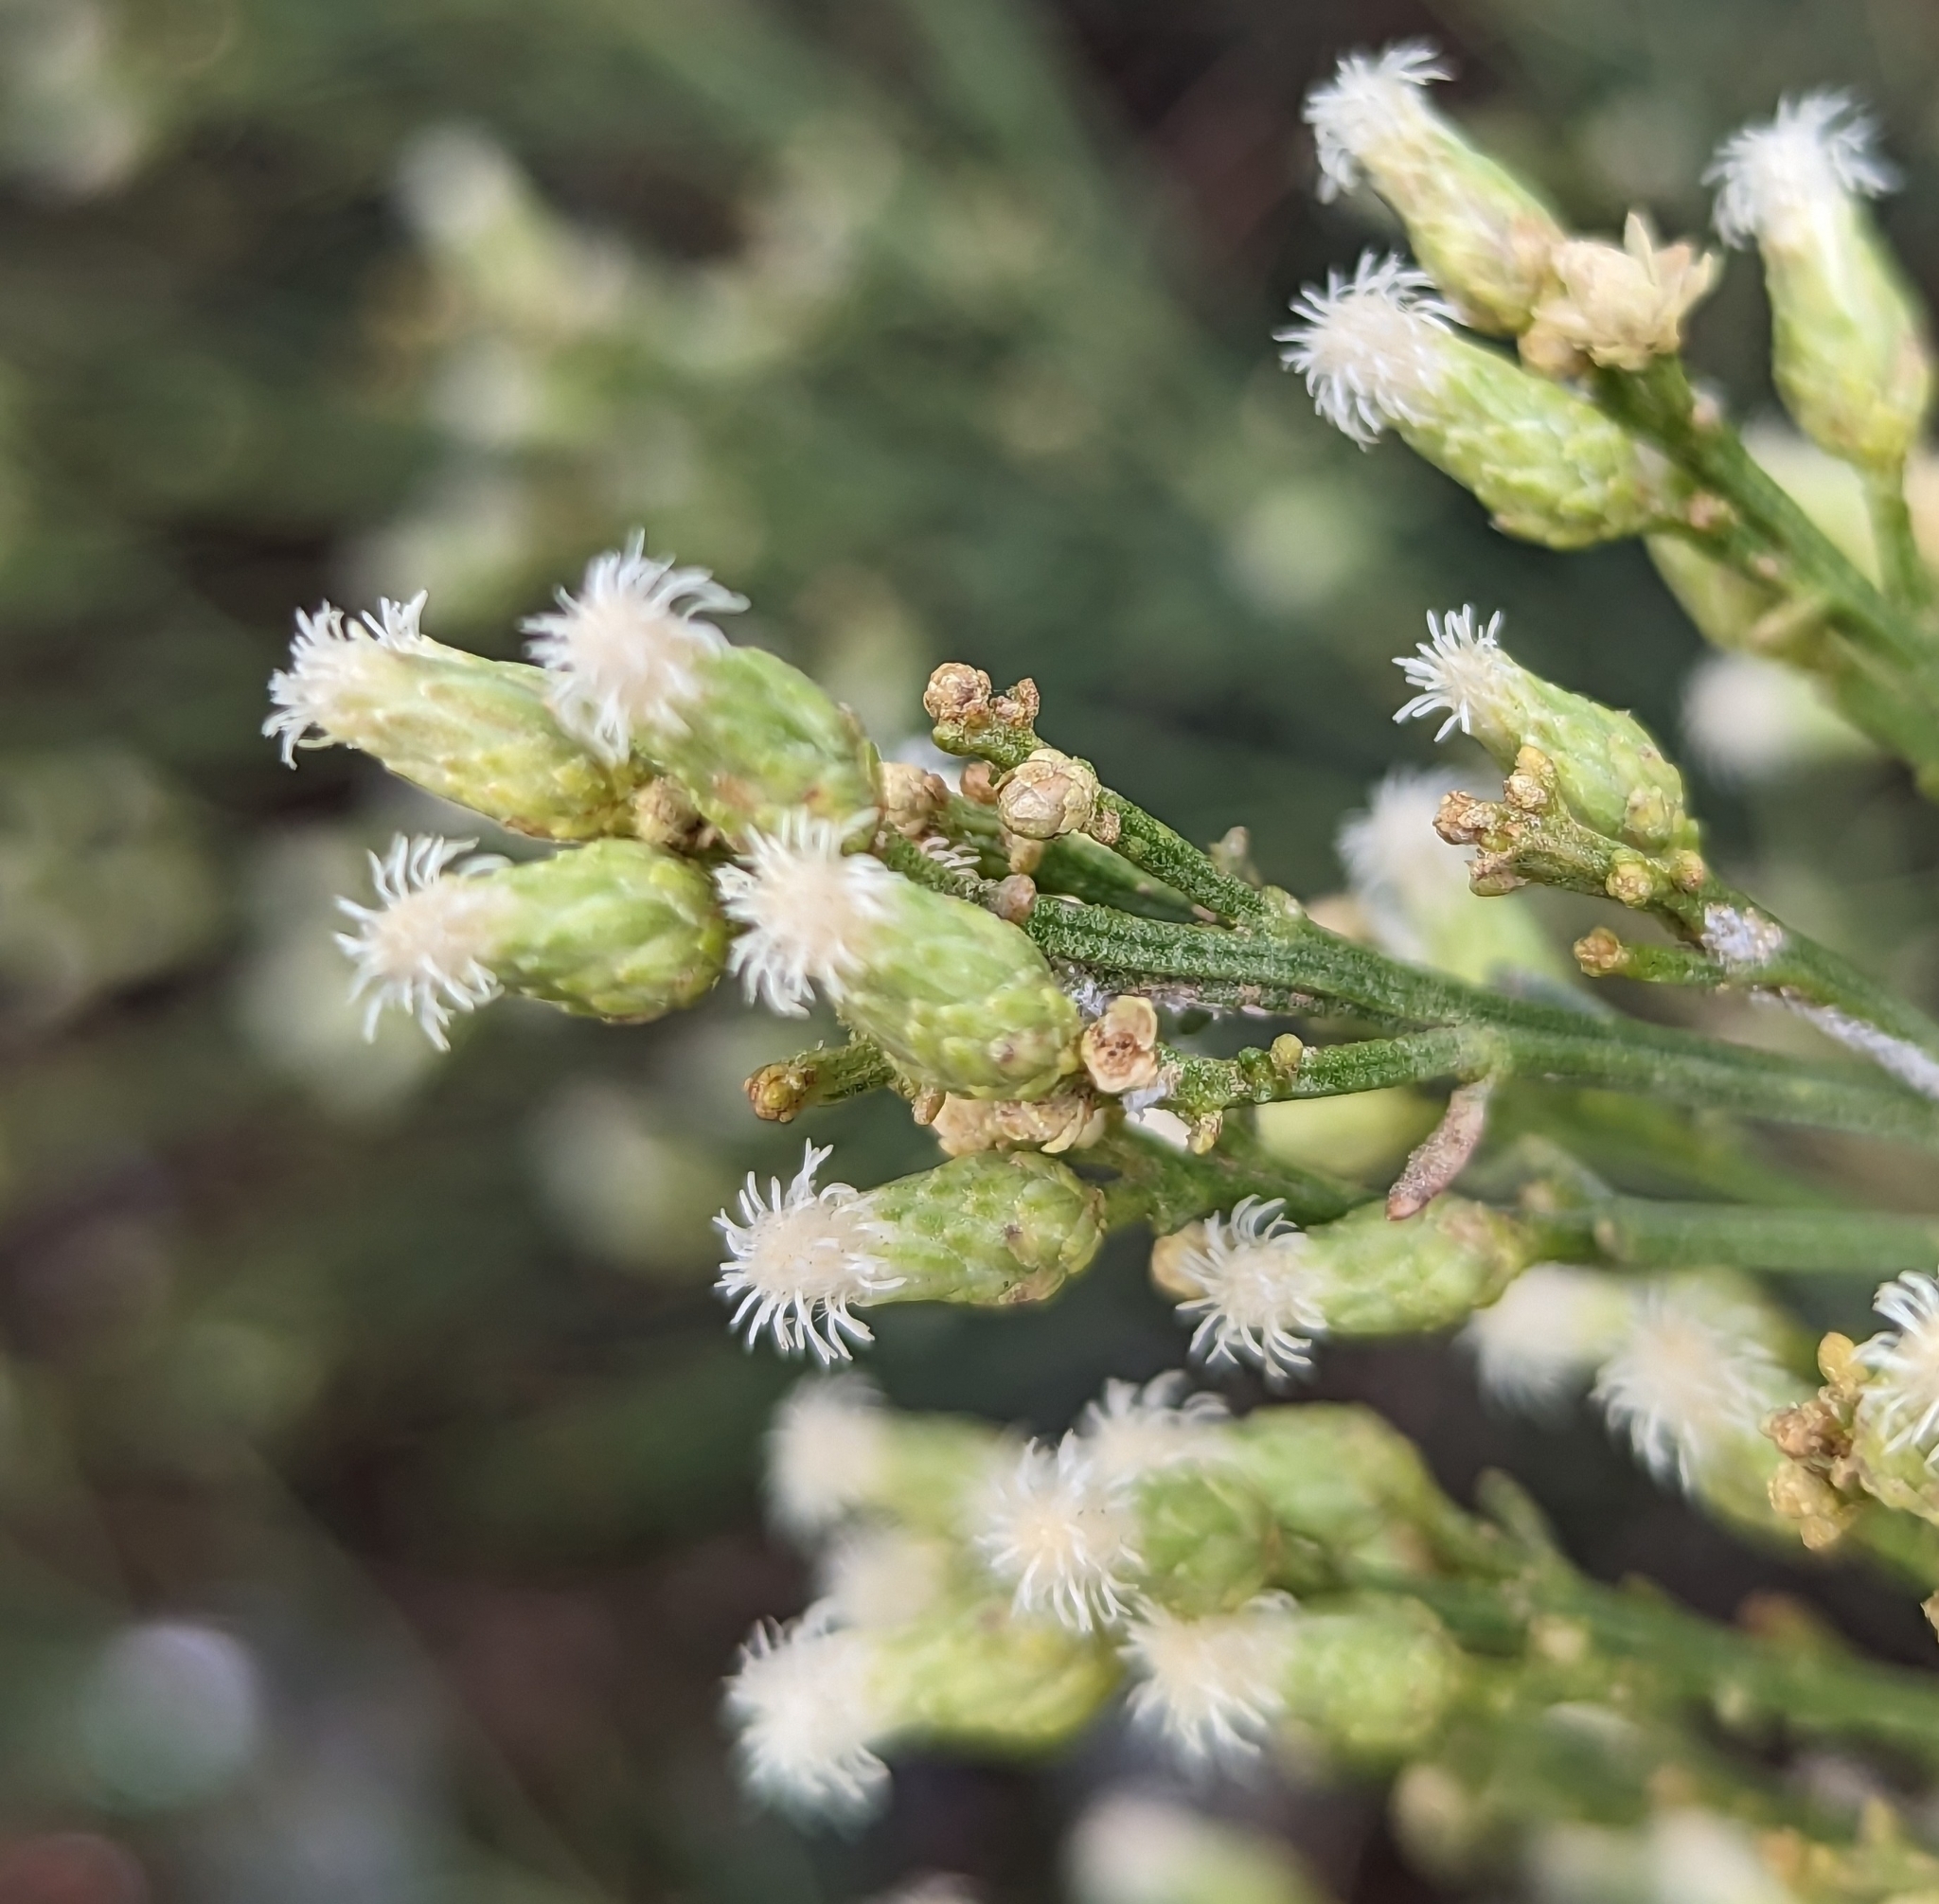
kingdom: Plantae
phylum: Tracheophyta
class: Magnoliopsida
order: Asterales
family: Asteraceae
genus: Baccharis
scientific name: Baccharis sarothroides
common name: Desert-broom
